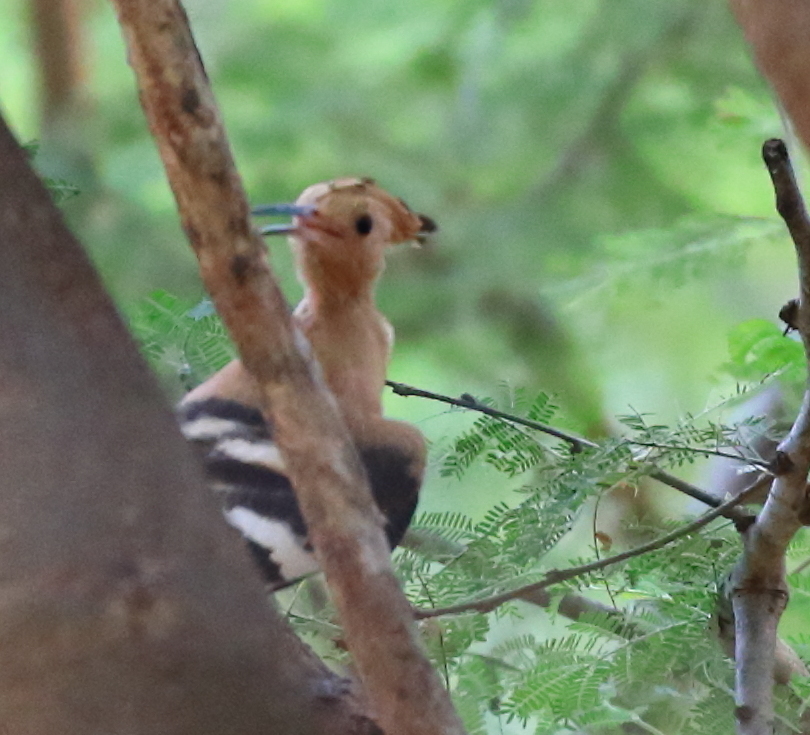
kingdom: Animalia
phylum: Chordata
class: Aves
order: Bucerotiformes
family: Upupidae
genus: Upupa
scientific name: Upupa epops
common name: Eurasian hoopoe
